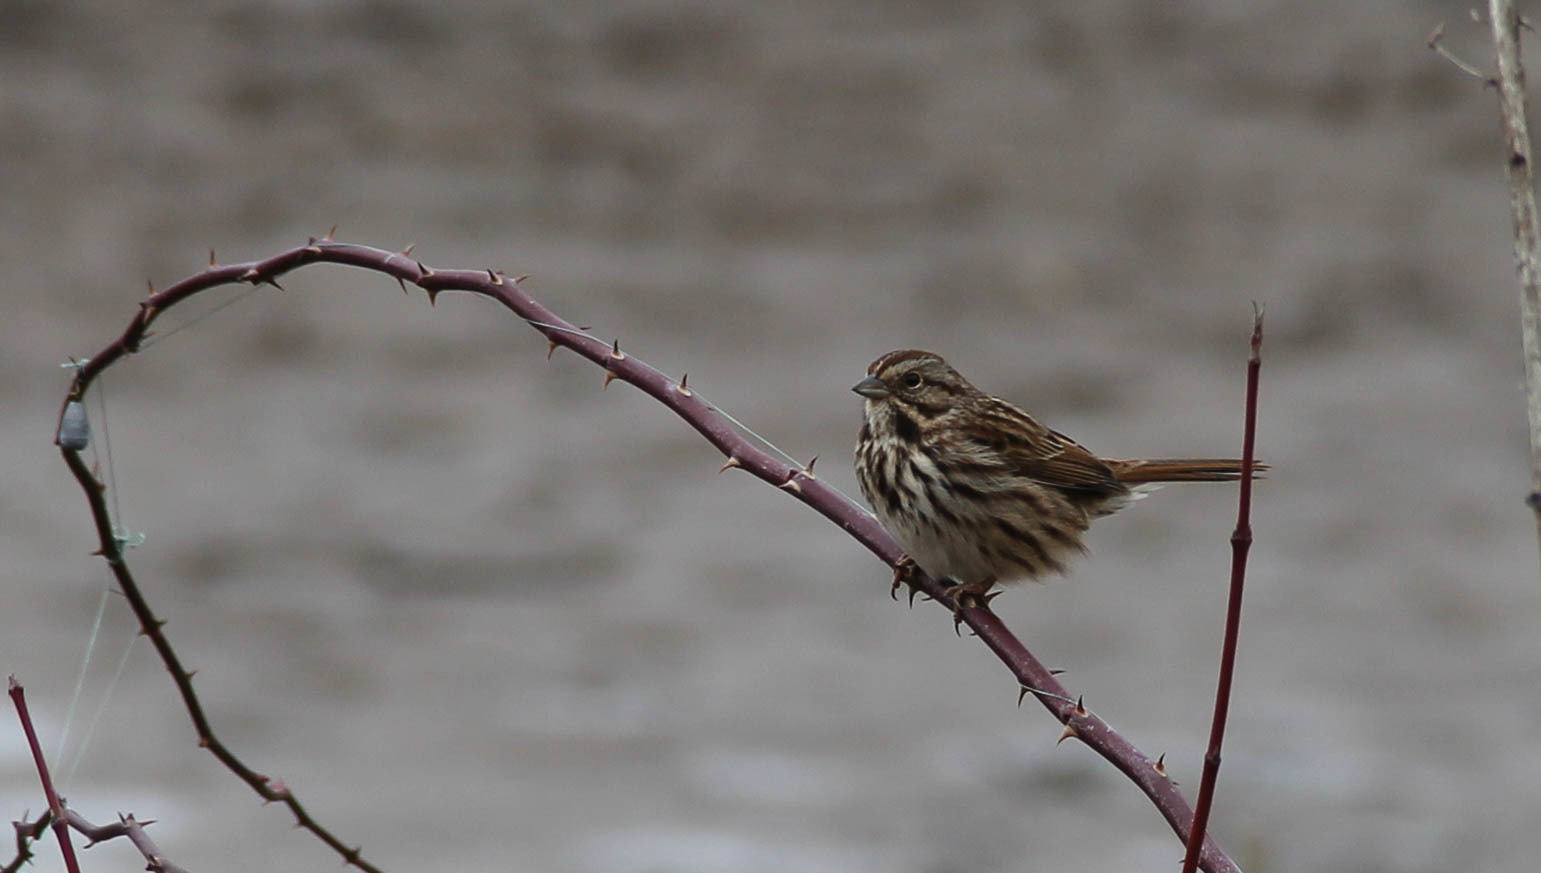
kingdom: Animalia
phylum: Chordata
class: Aves
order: Passeriformes
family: Passerellidae
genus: Melospiza
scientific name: Melospiza melodia
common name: Song sparrow
